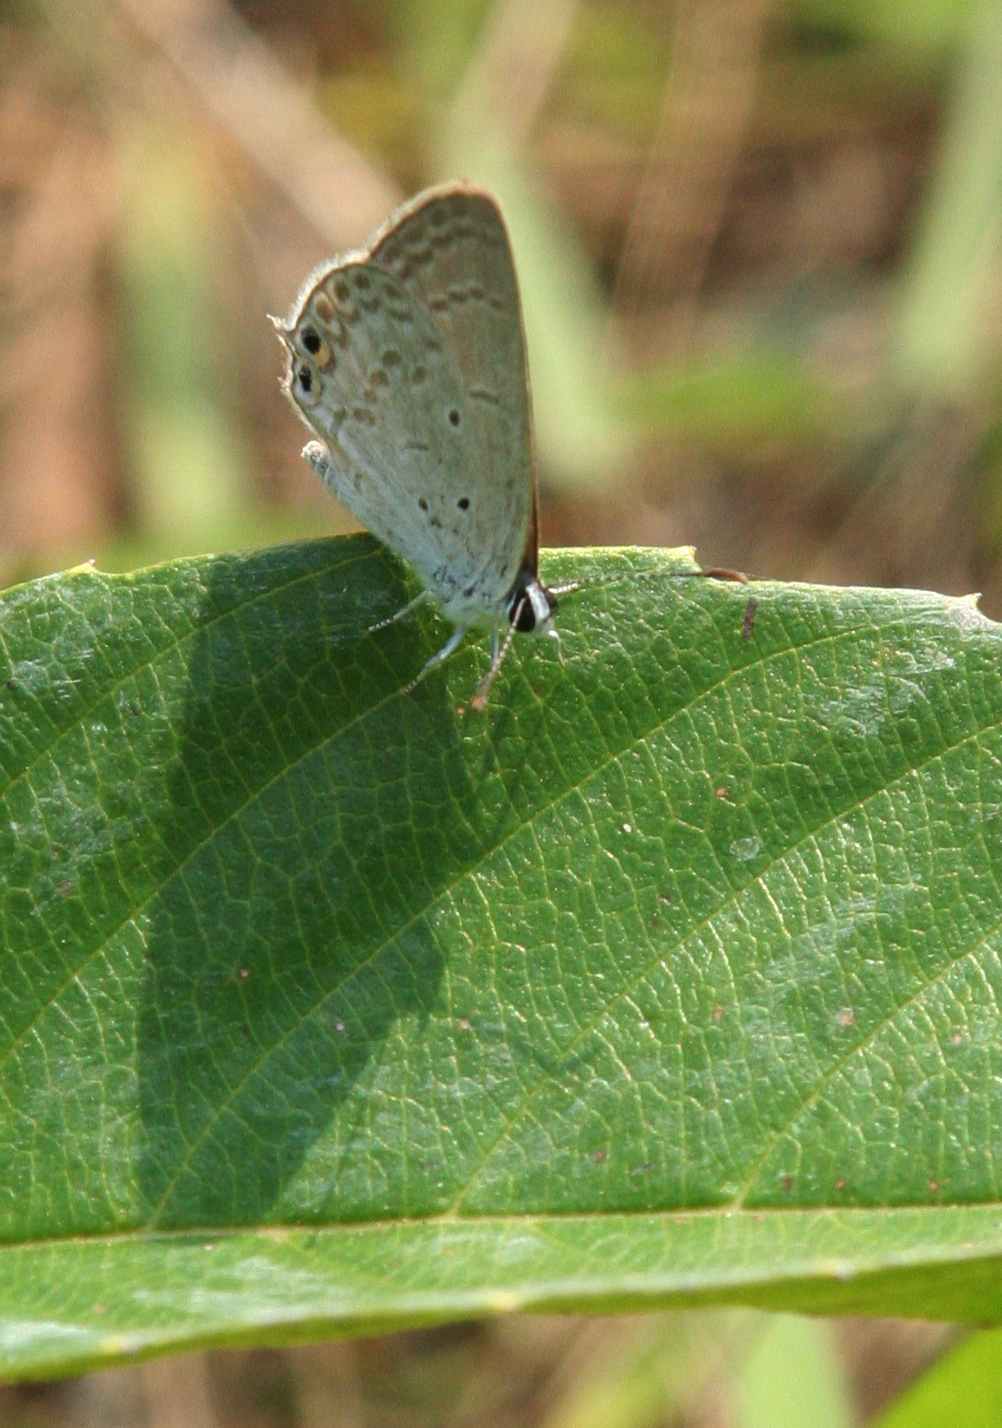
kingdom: Animalia
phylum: Arthropoda
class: Insecta
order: Lepidoptera
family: Lycaenidae
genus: Euchrysops
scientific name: Euchrysops cnejus
